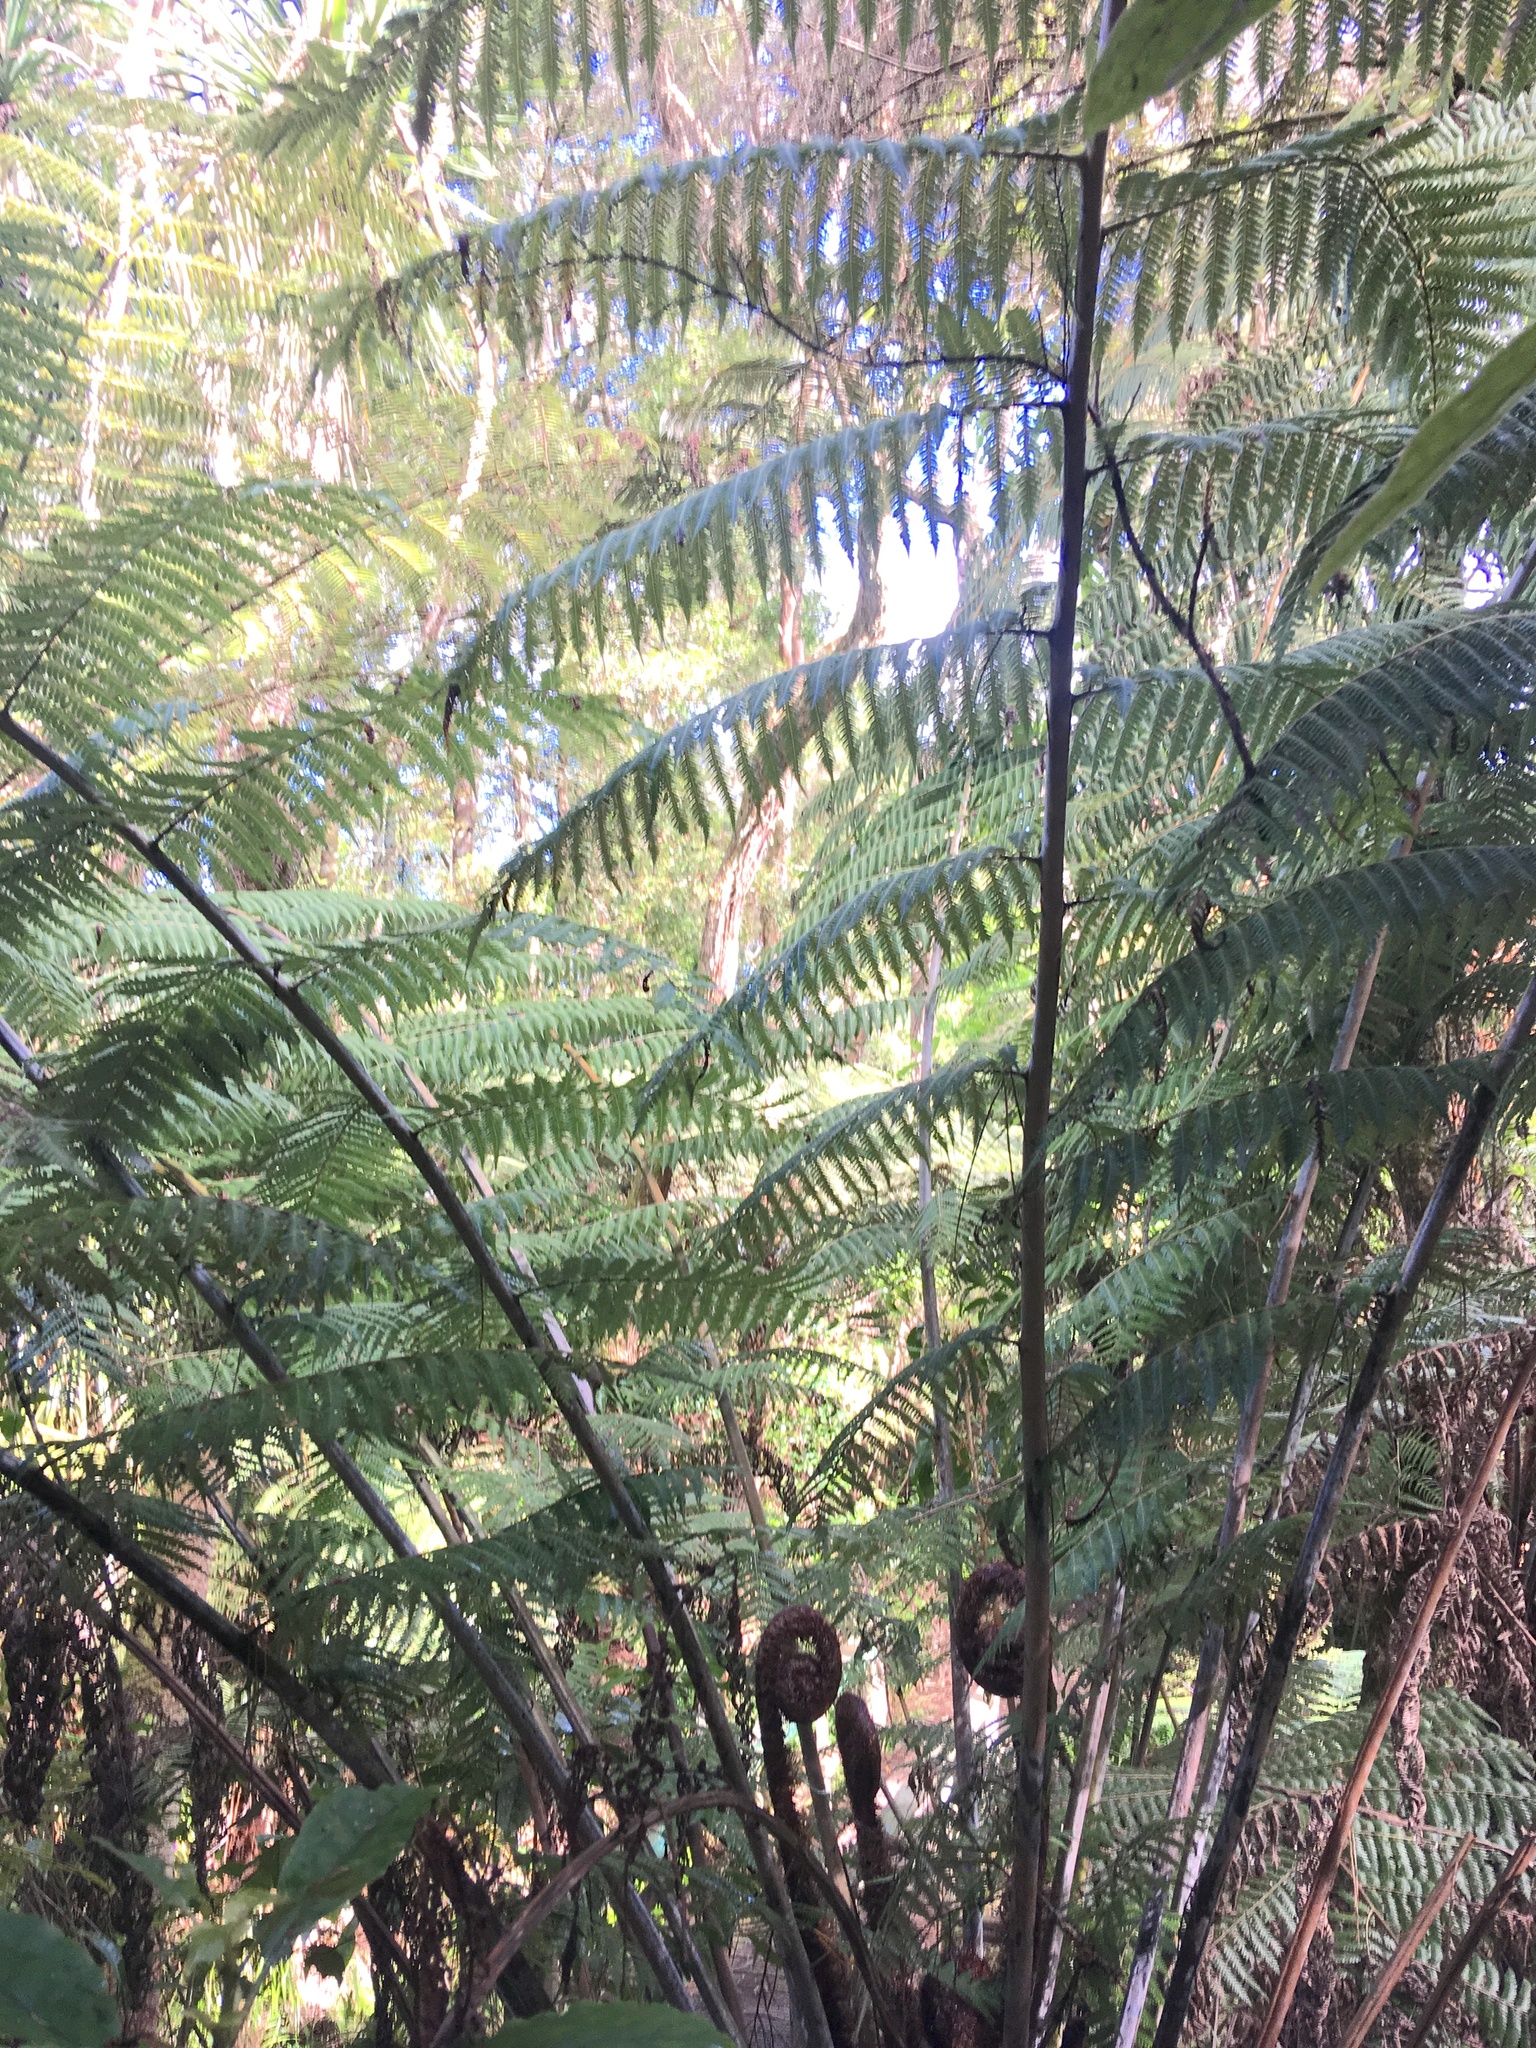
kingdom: Plantae
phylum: Tracheophyta
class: Polypodiopsida
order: Cyatheales
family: Cyatheaceae
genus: Alsophila
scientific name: Alsophila dealbata
